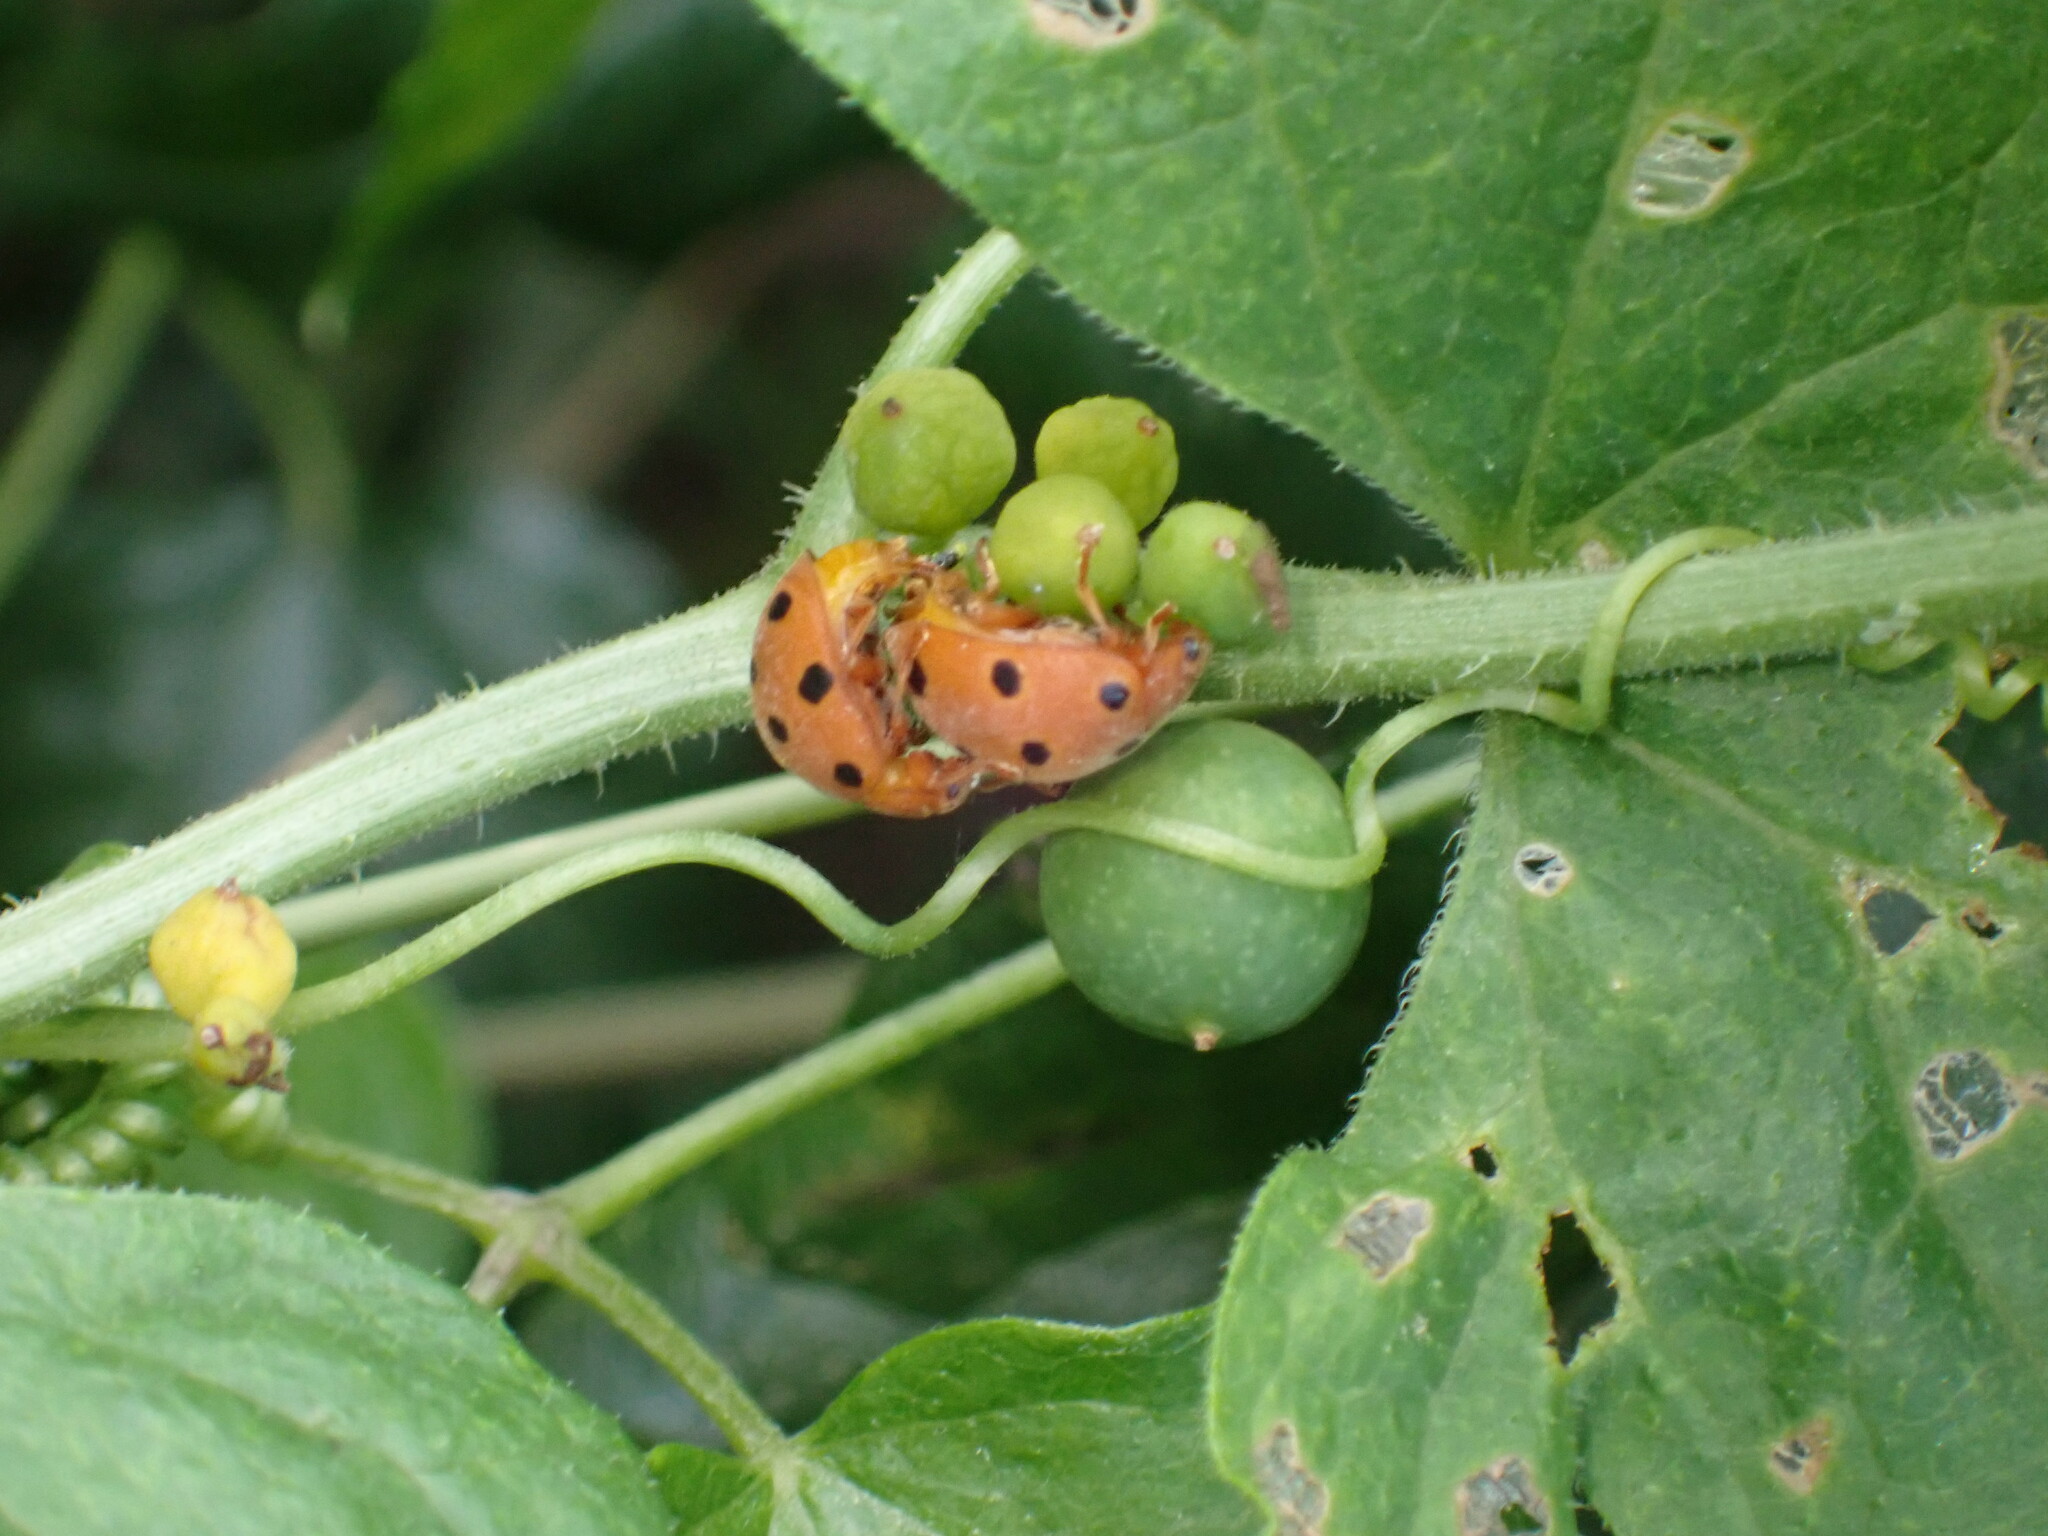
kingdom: Animalia
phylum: Arthropoda
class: Insecta
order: Coleoptera
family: Coccinellidae
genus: Henosepilachna
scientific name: Henosepilachna argus
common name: Bryony ladybird
